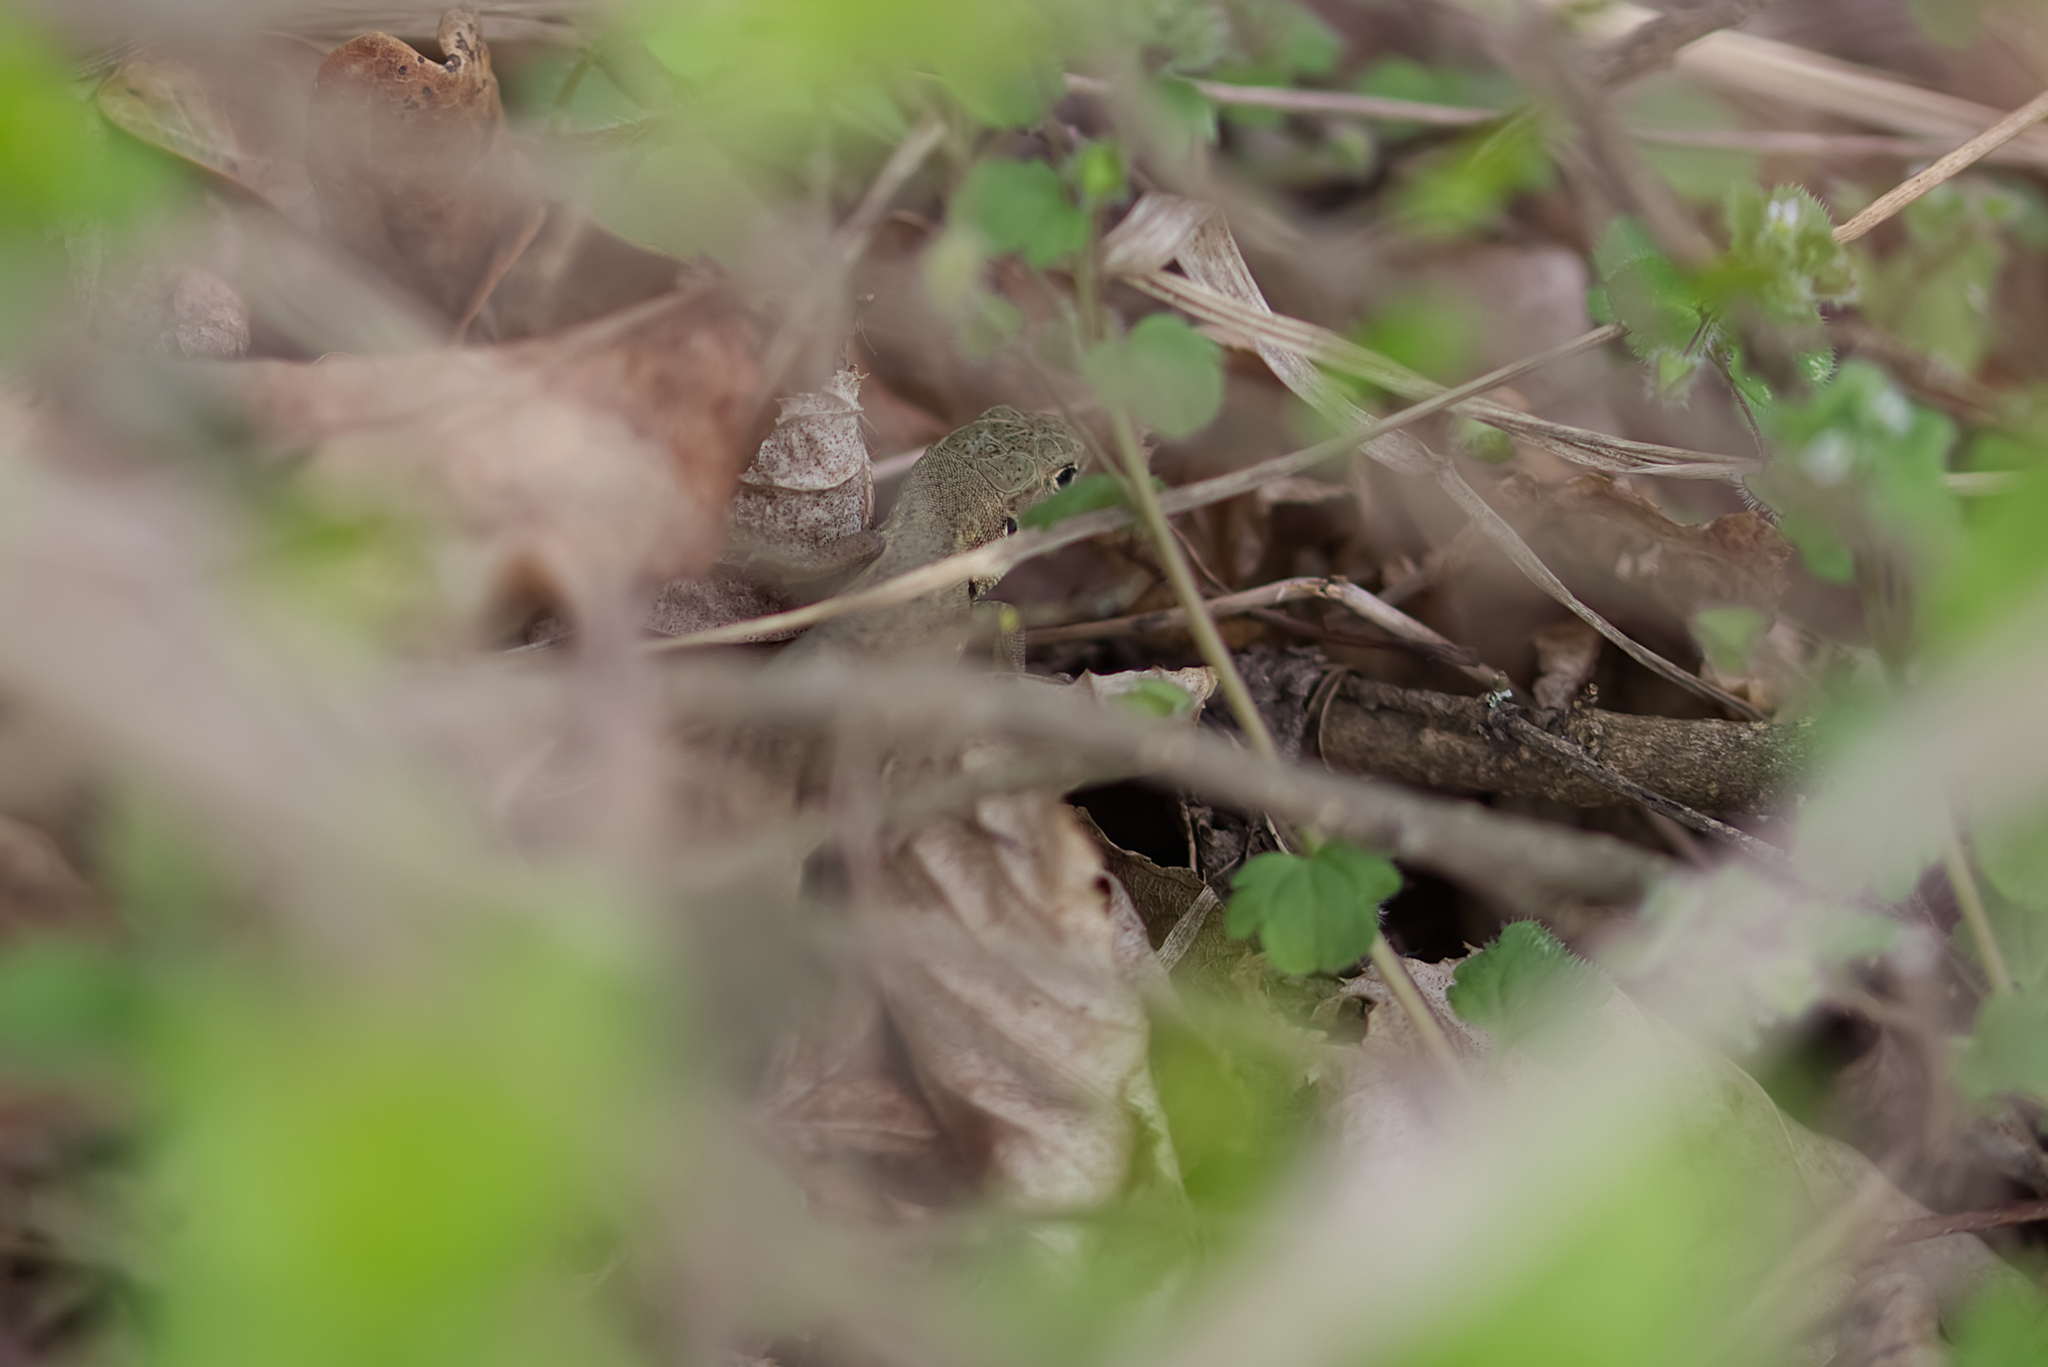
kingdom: Animalia
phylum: Chordata
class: Squamata
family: Lacertidae
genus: Lacerta
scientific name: Lacerta viridis
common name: European green lizard
